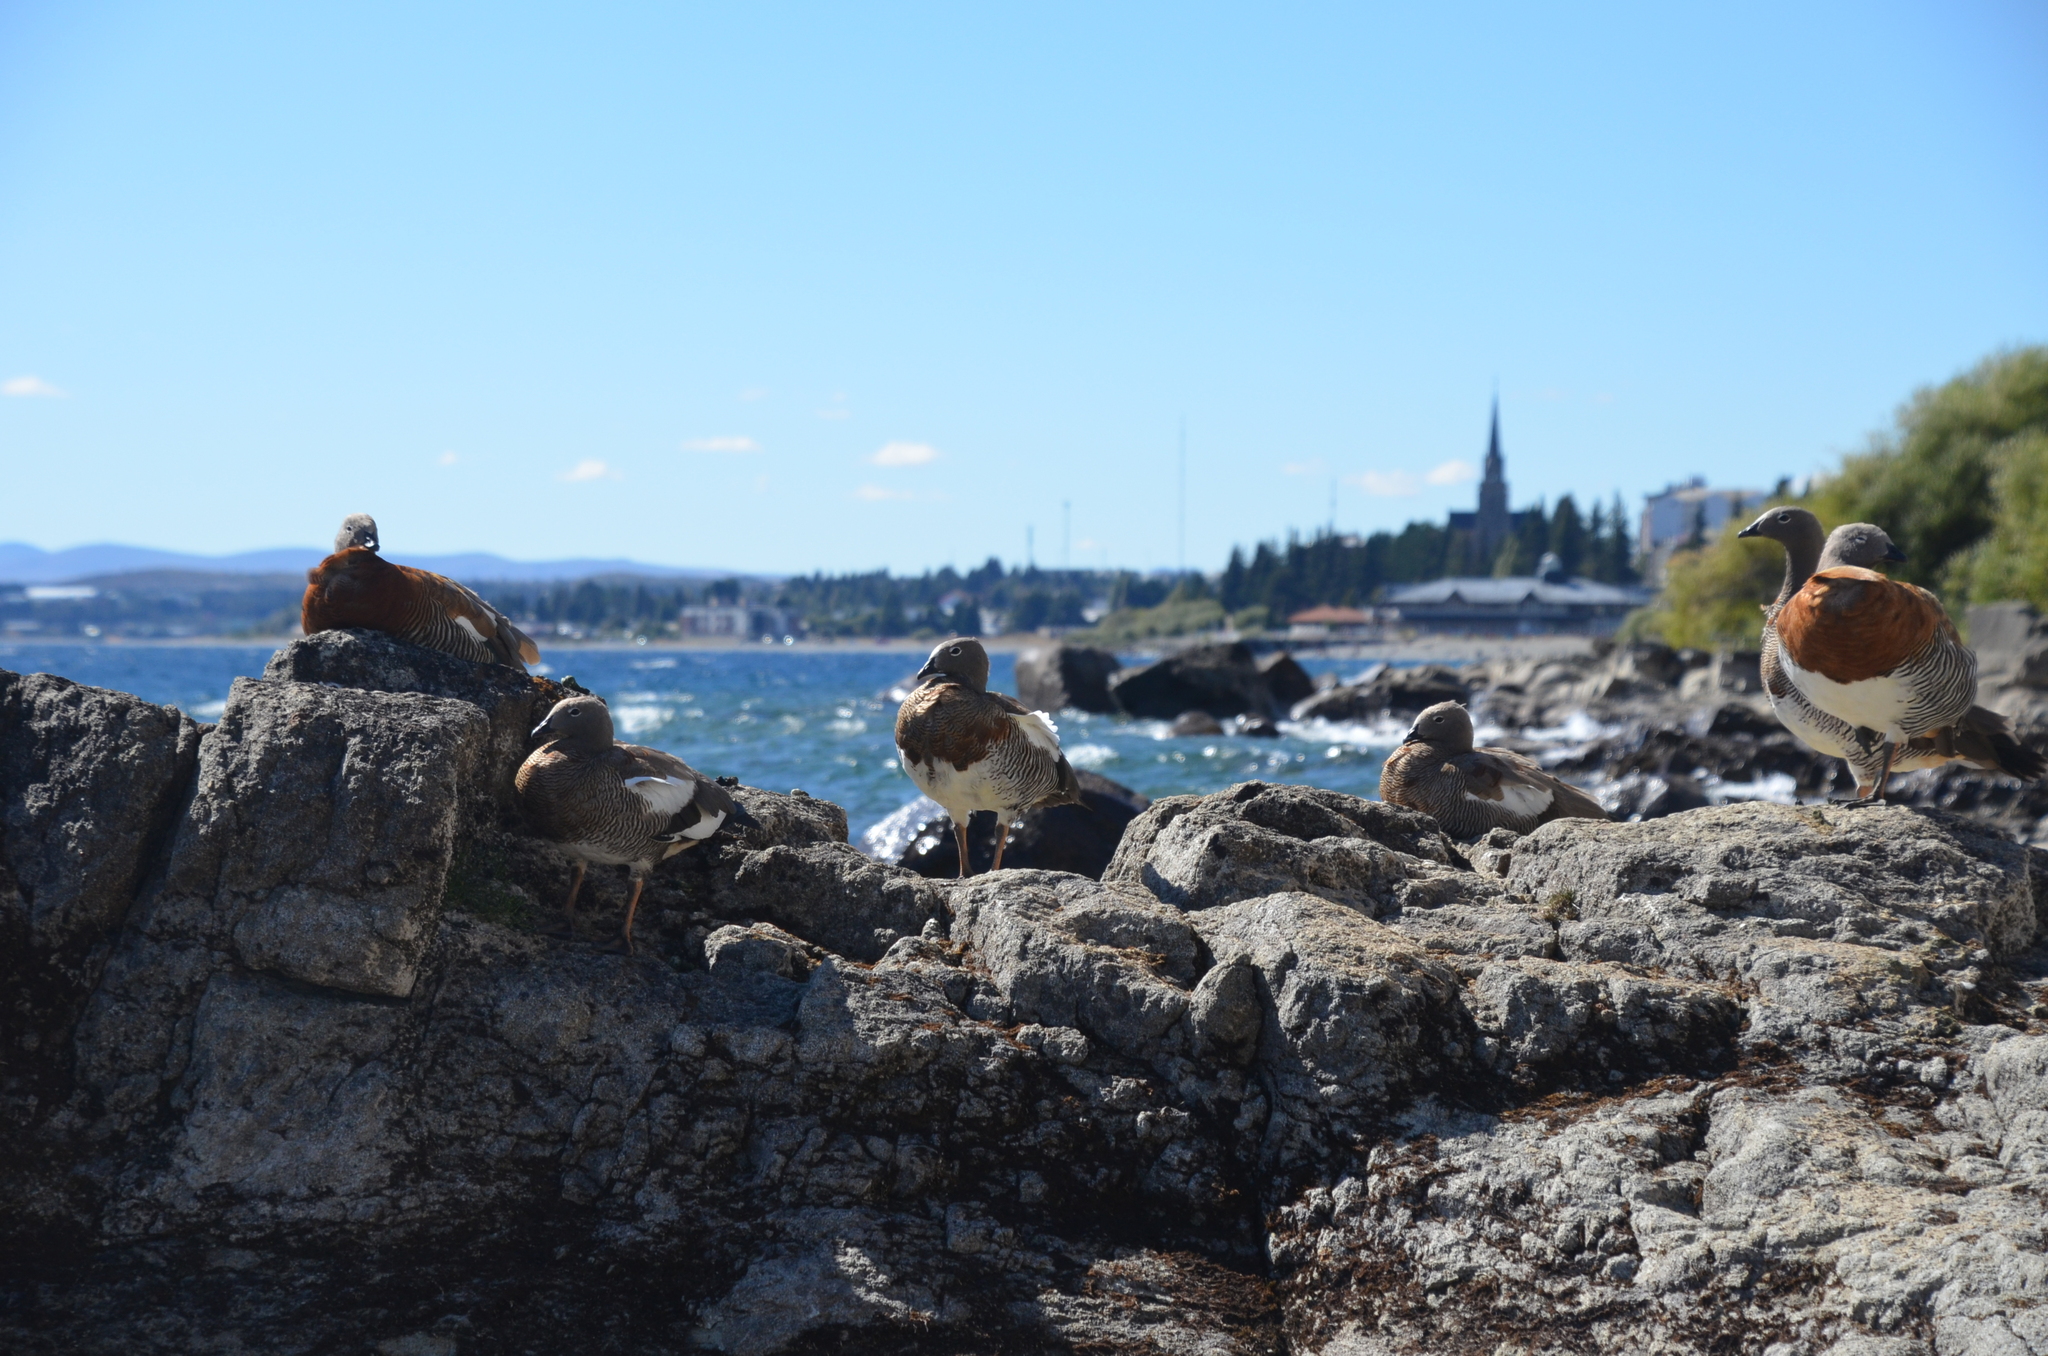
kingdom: Animalia
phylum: Chordata
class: Aves
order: Anseriformes
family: Anatidae
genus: Chloephaga
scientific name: Chloephaga poliocephala
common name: Ashy-headed goose
